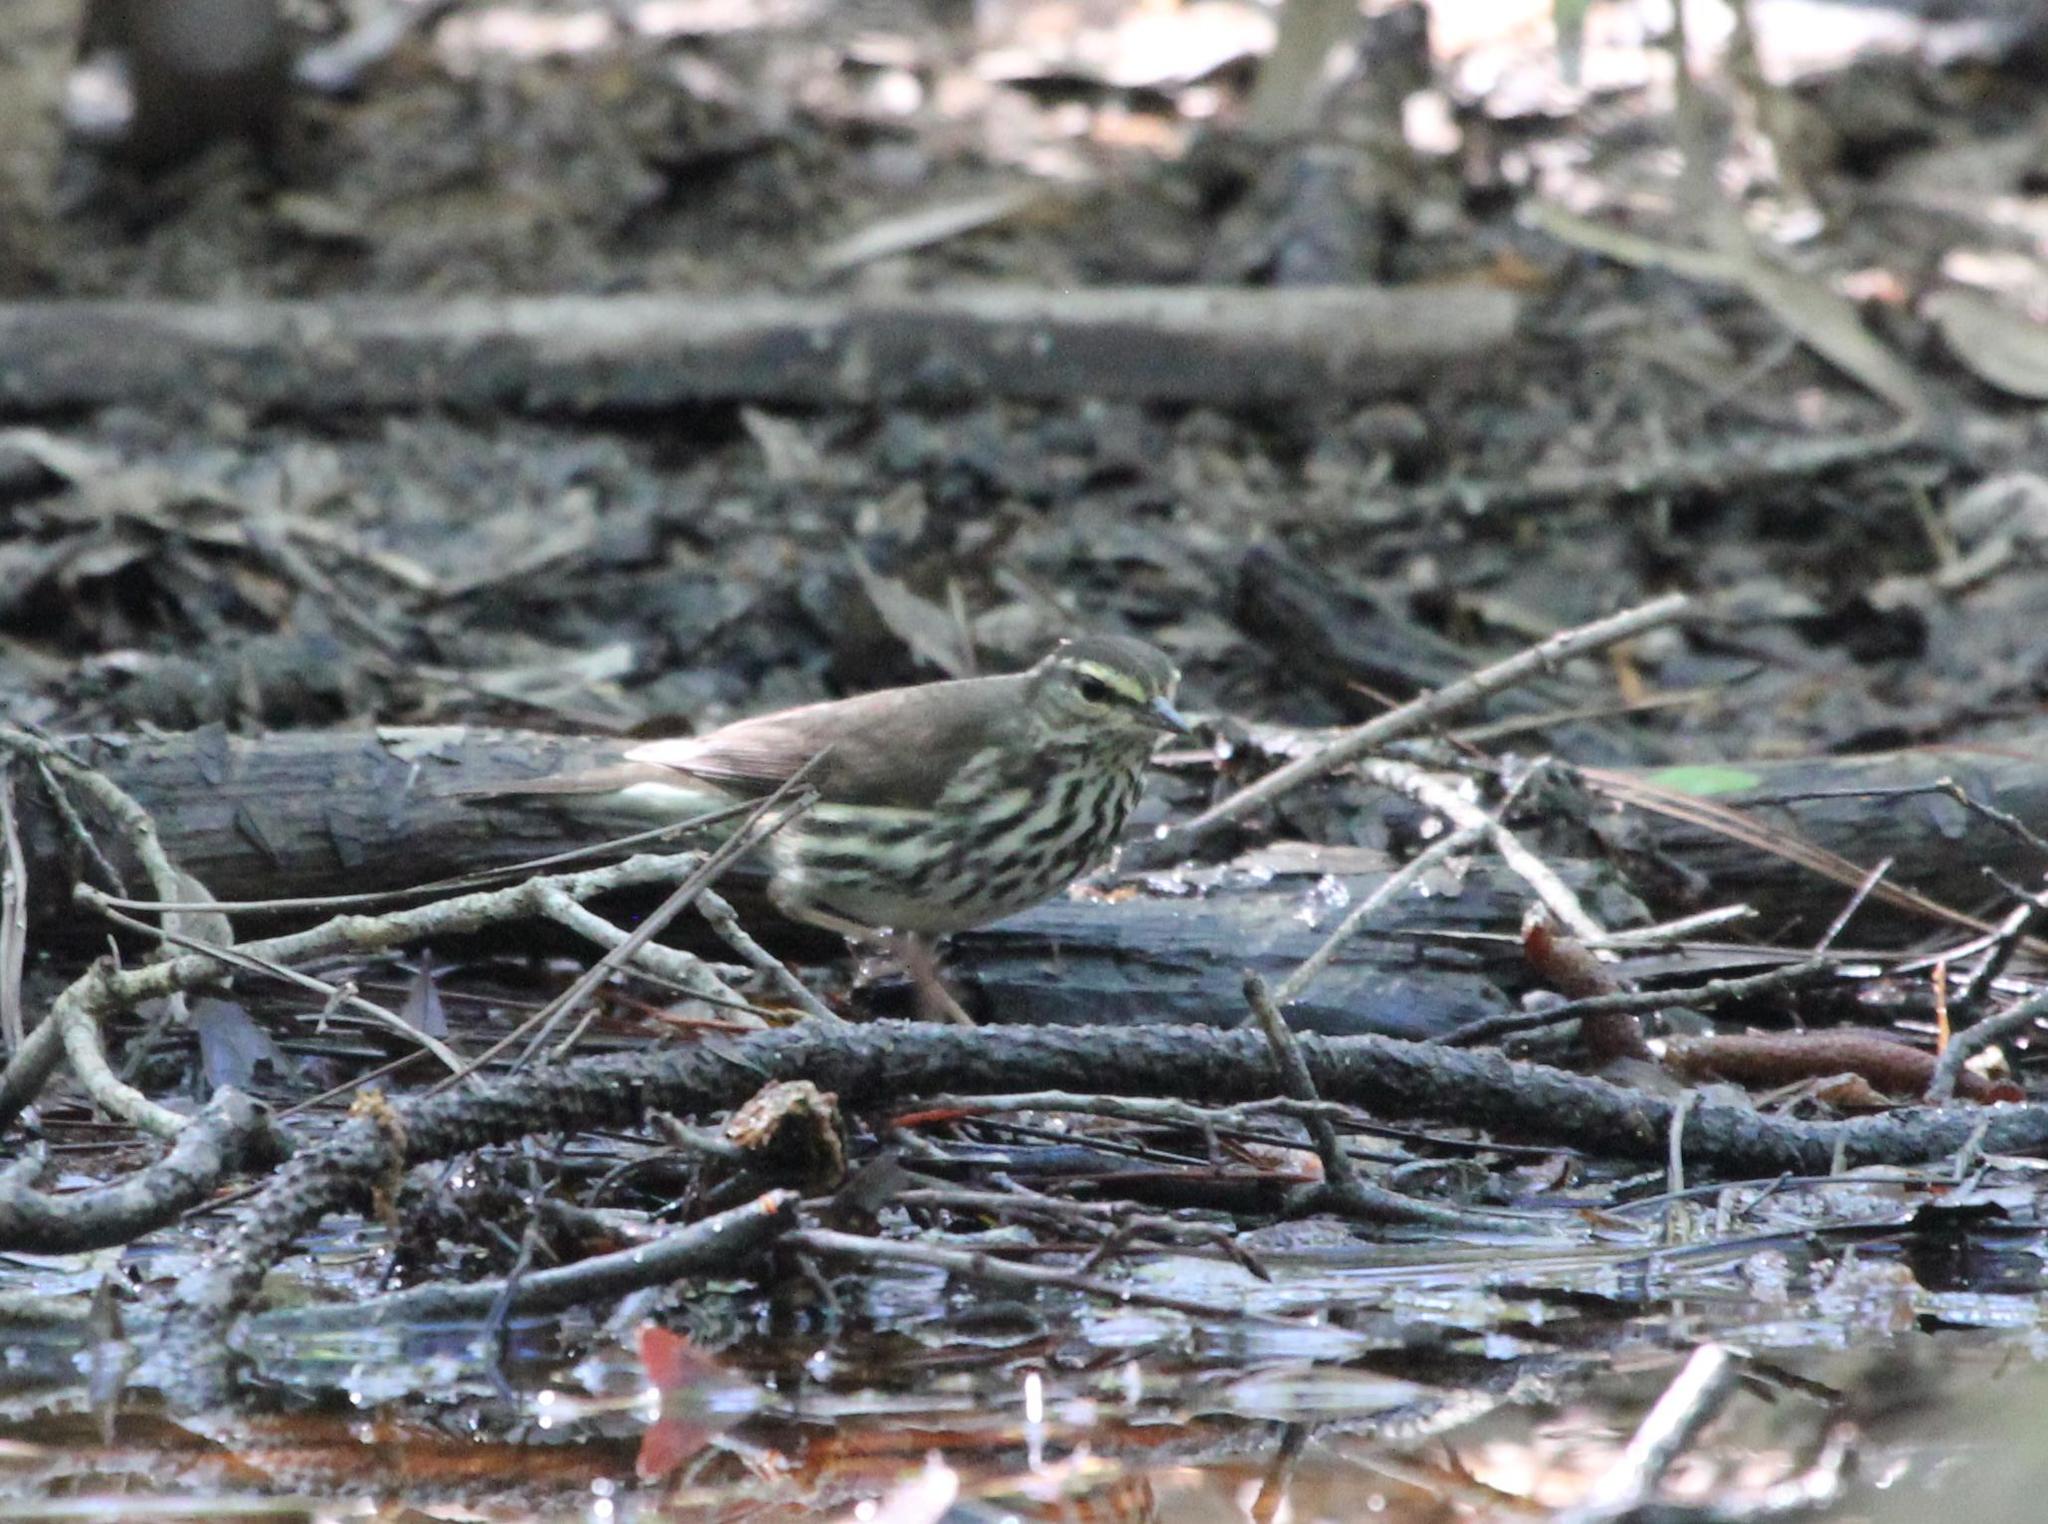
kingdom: Animalia
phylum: Chordata
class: Aves
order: Passeriformes
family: Parulidae
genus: Parkesia
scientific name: Parkesia noveboracensis
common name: Northern waterthrush
